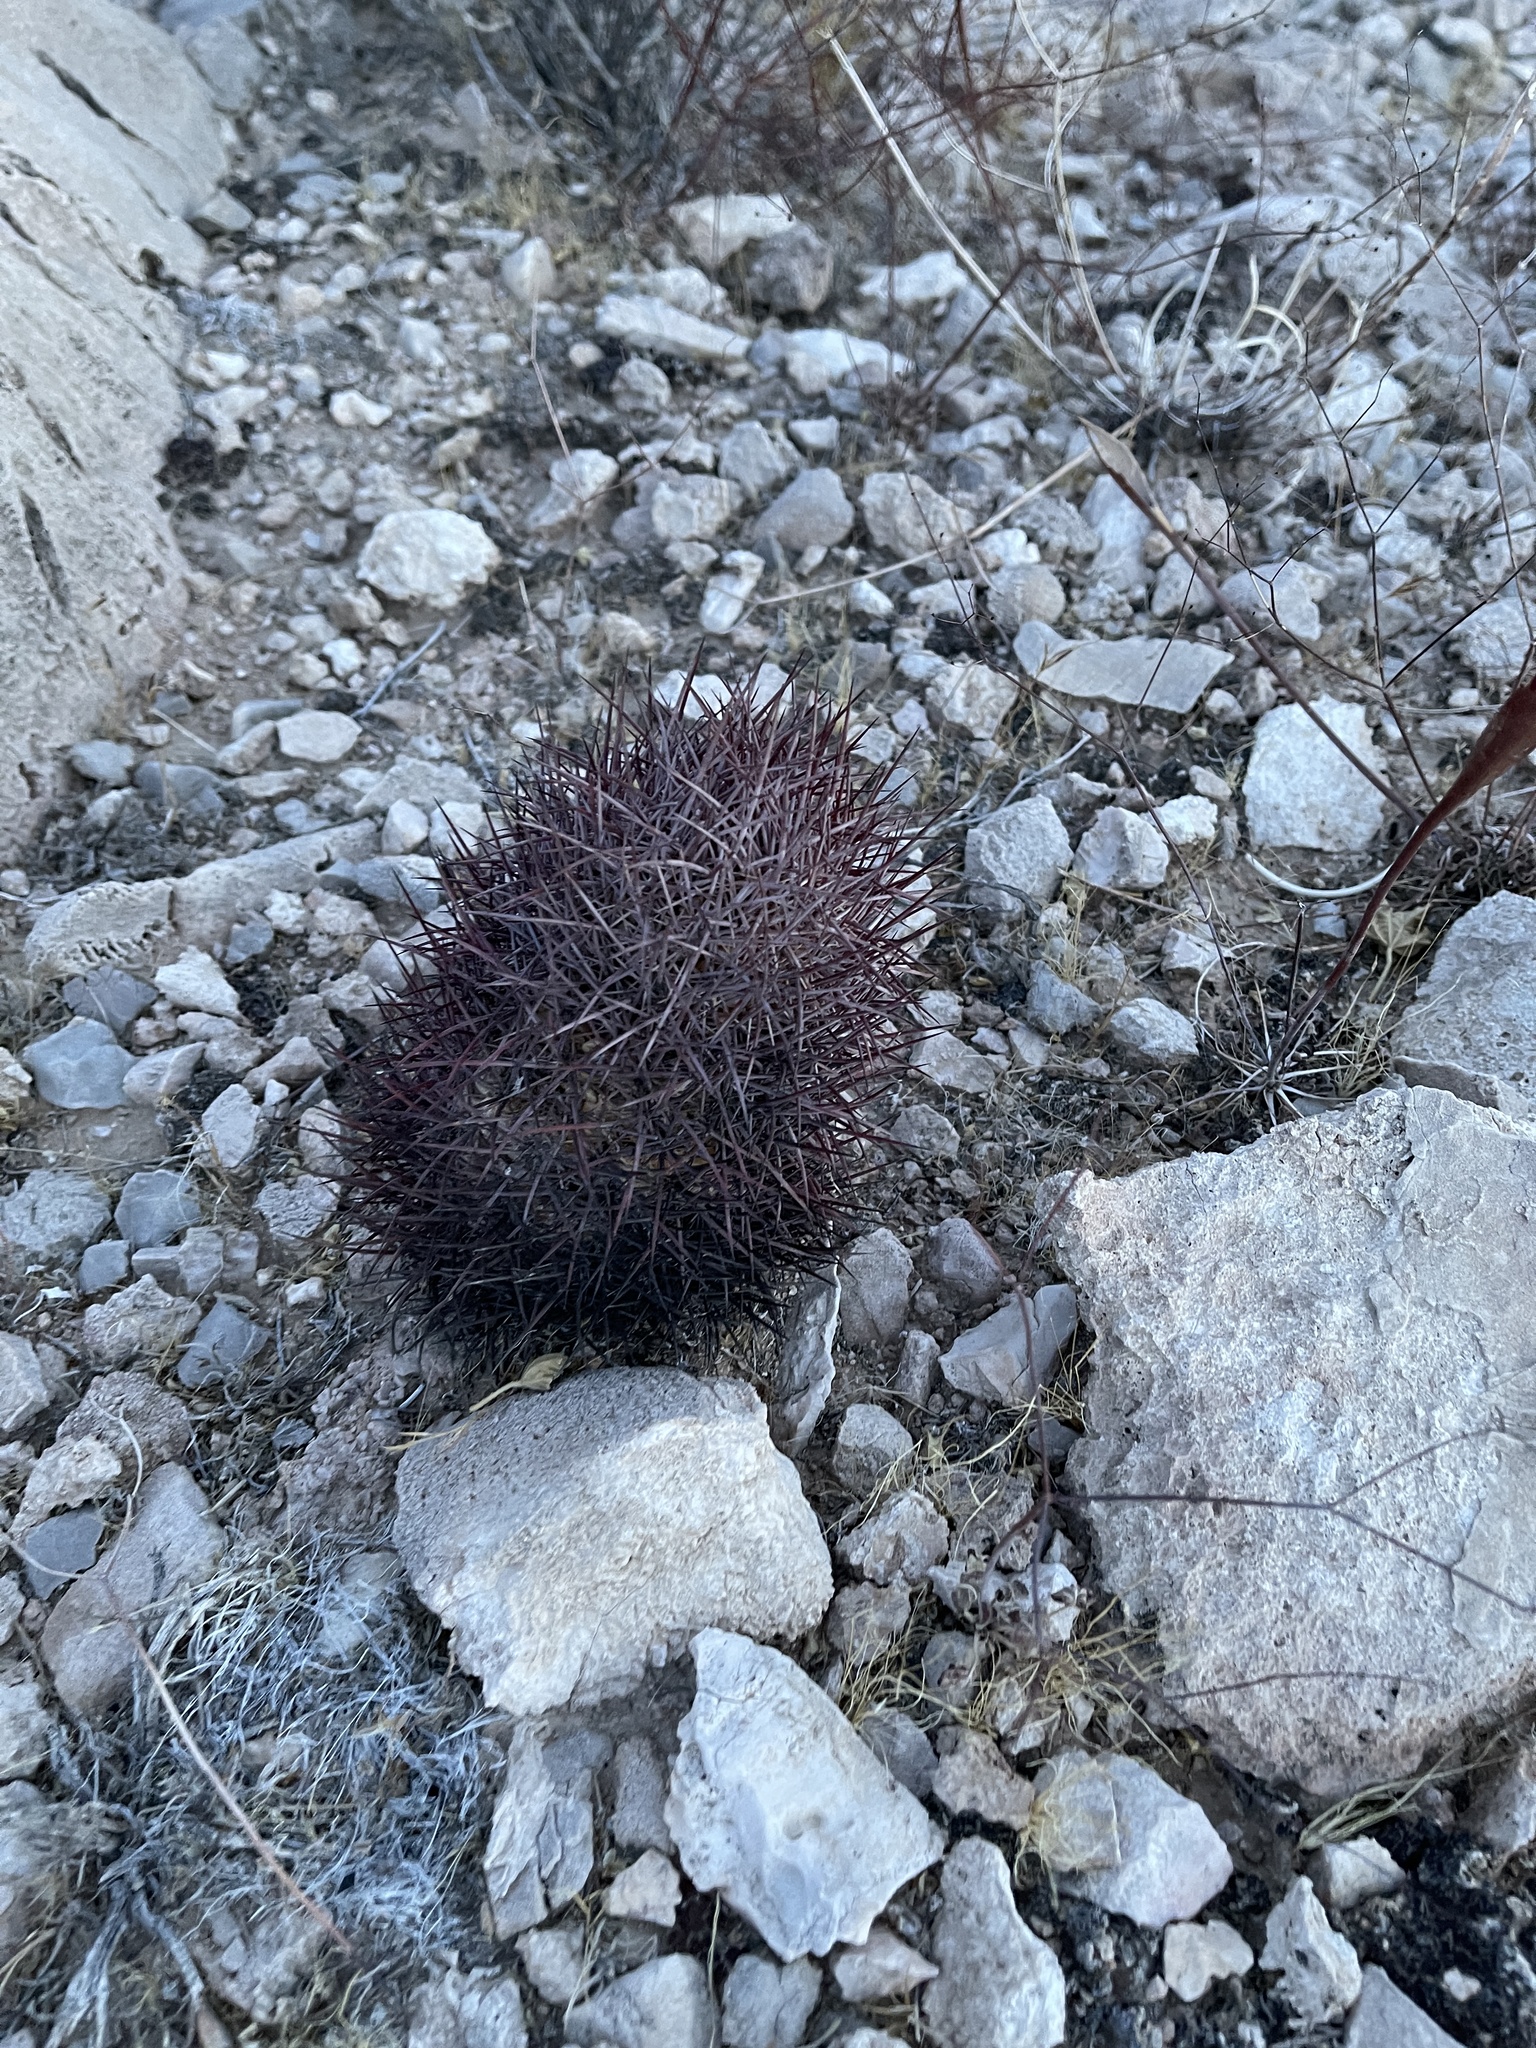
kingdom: Plantae
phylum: Tracheophyta
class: Magnoliopsida
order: Caryophyllales
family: Cactaceae
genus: Sclerocactus
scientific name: Sclerocactus johnsonii
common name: Eight-spine fishhook cactus
